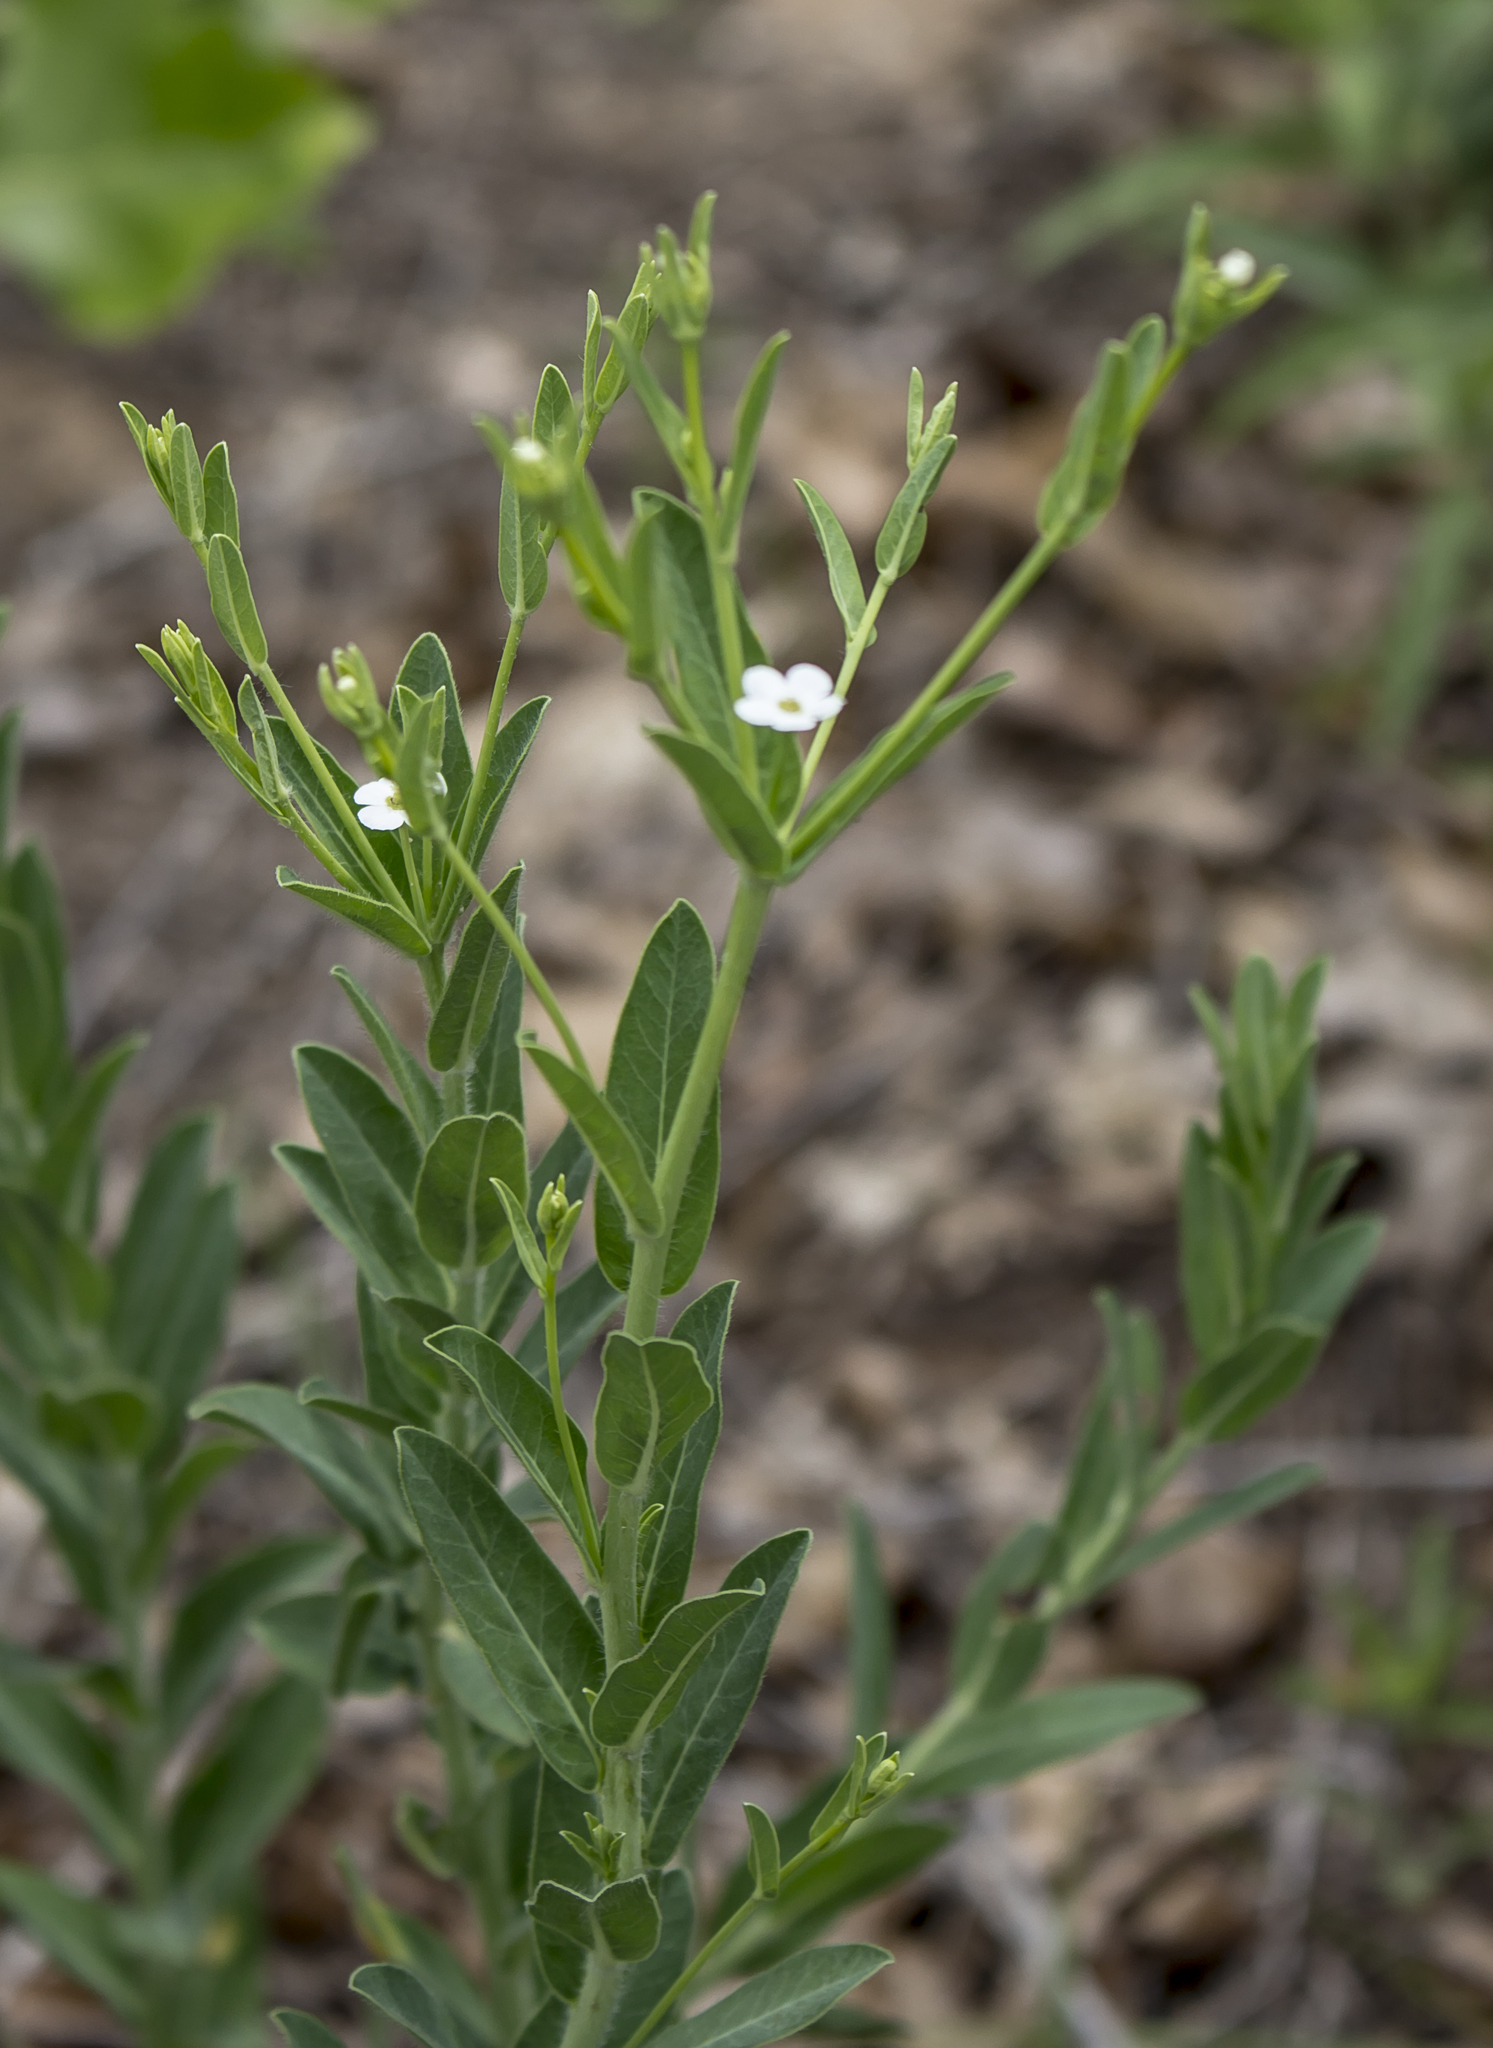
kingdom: Plantae
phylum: Tracheophyta
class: Magnoliopsida
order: Malpighiales
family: Euphorbiaceae
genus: Euphorbia
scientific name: Euphorbia corollata
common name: Flowering spurge
